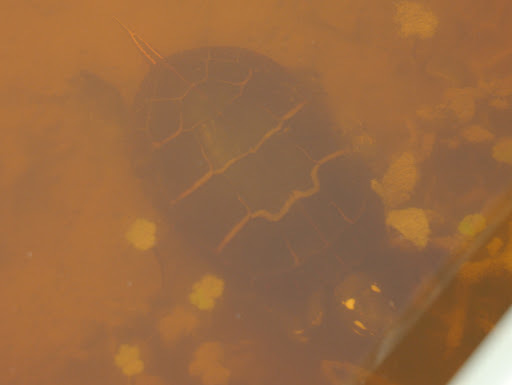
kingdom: Animalia
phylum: Chordata
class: Testudines
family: Emydidae
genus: Chrysemys
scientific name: Chrysemys picta
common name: Painted turtle
